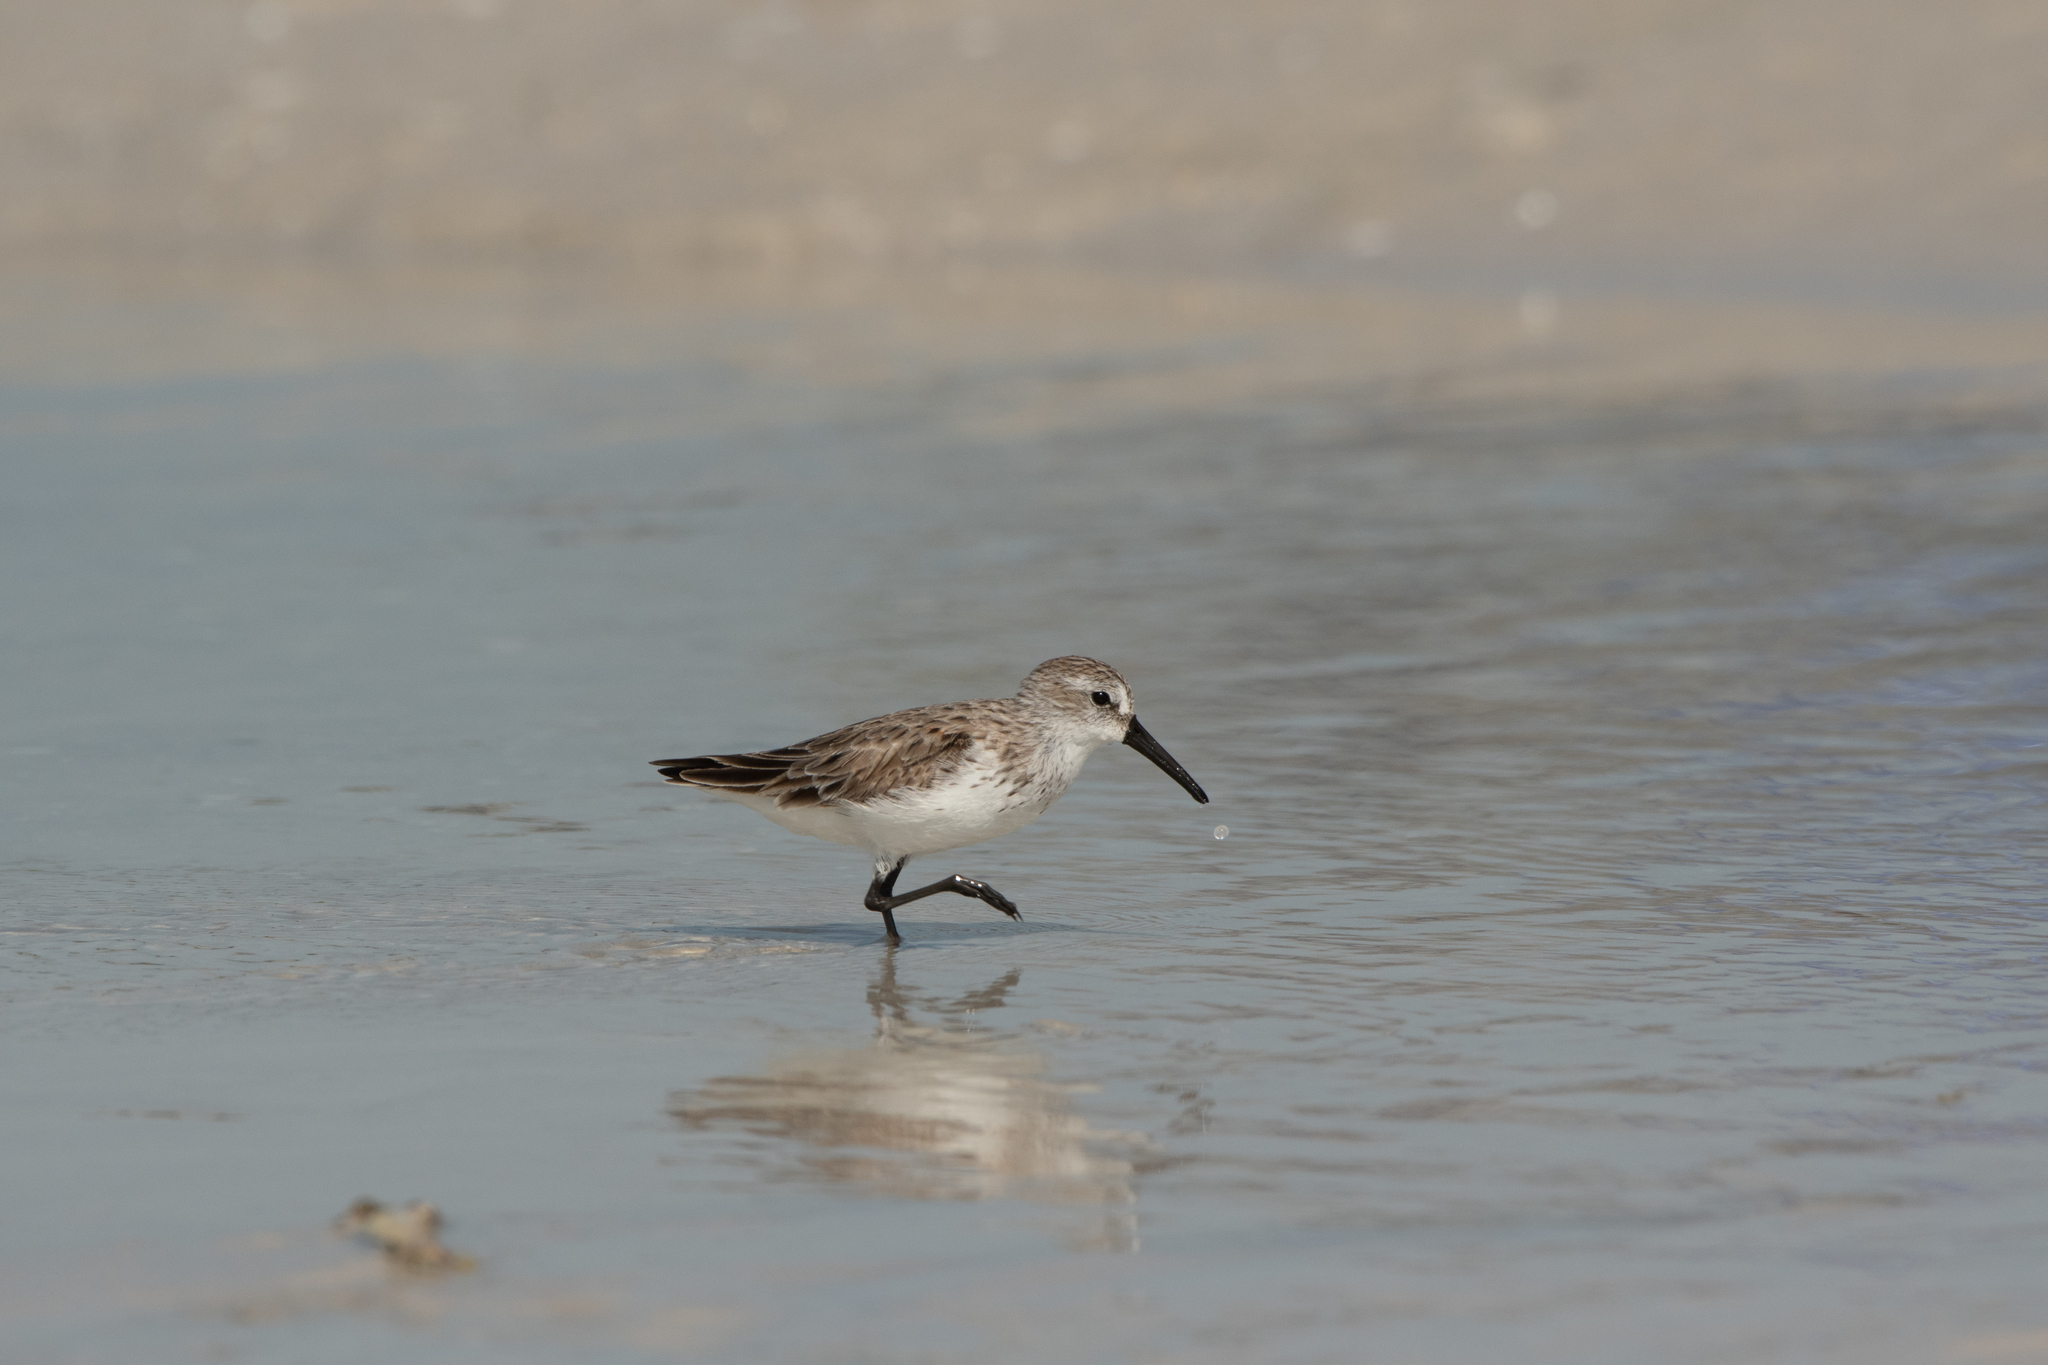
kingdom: Animalia
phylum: Chordata
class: Aves
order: Charadriiformes
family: Scolopacidae
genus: Calidris
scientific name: Calidris mauri
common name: Western sandpiper
